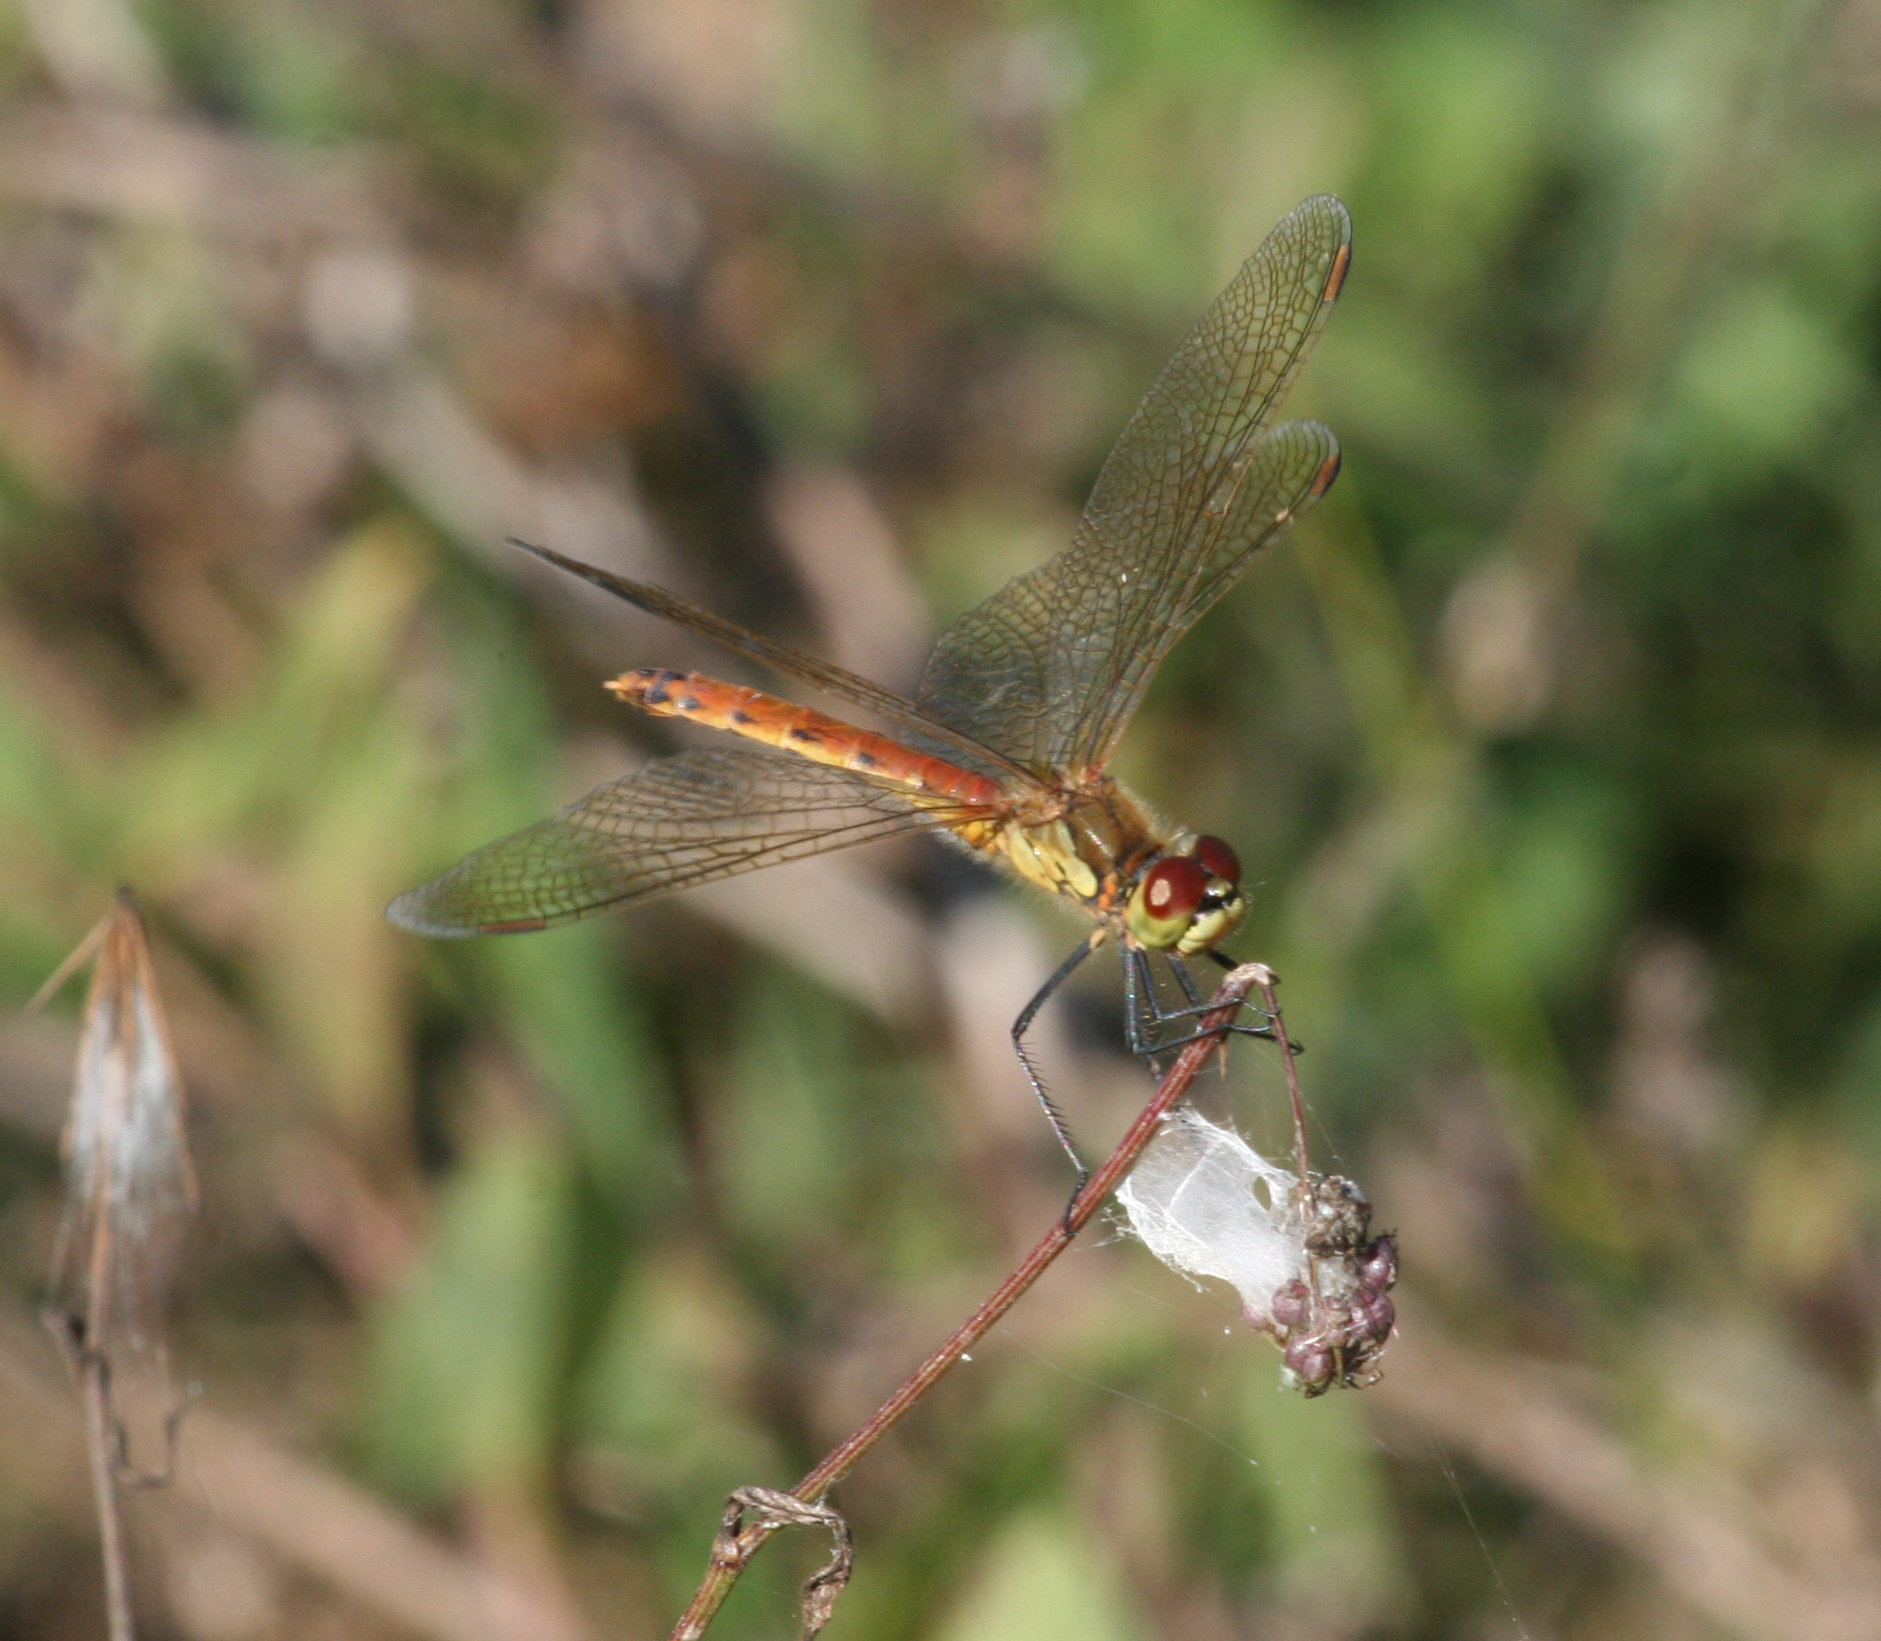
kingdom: Animalia
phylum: Arthropoda
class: Insecta
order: Odonata
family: Libellulidae
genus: Sympetrum
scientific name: Sympetrum depressiusculum
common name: Spotted darter
